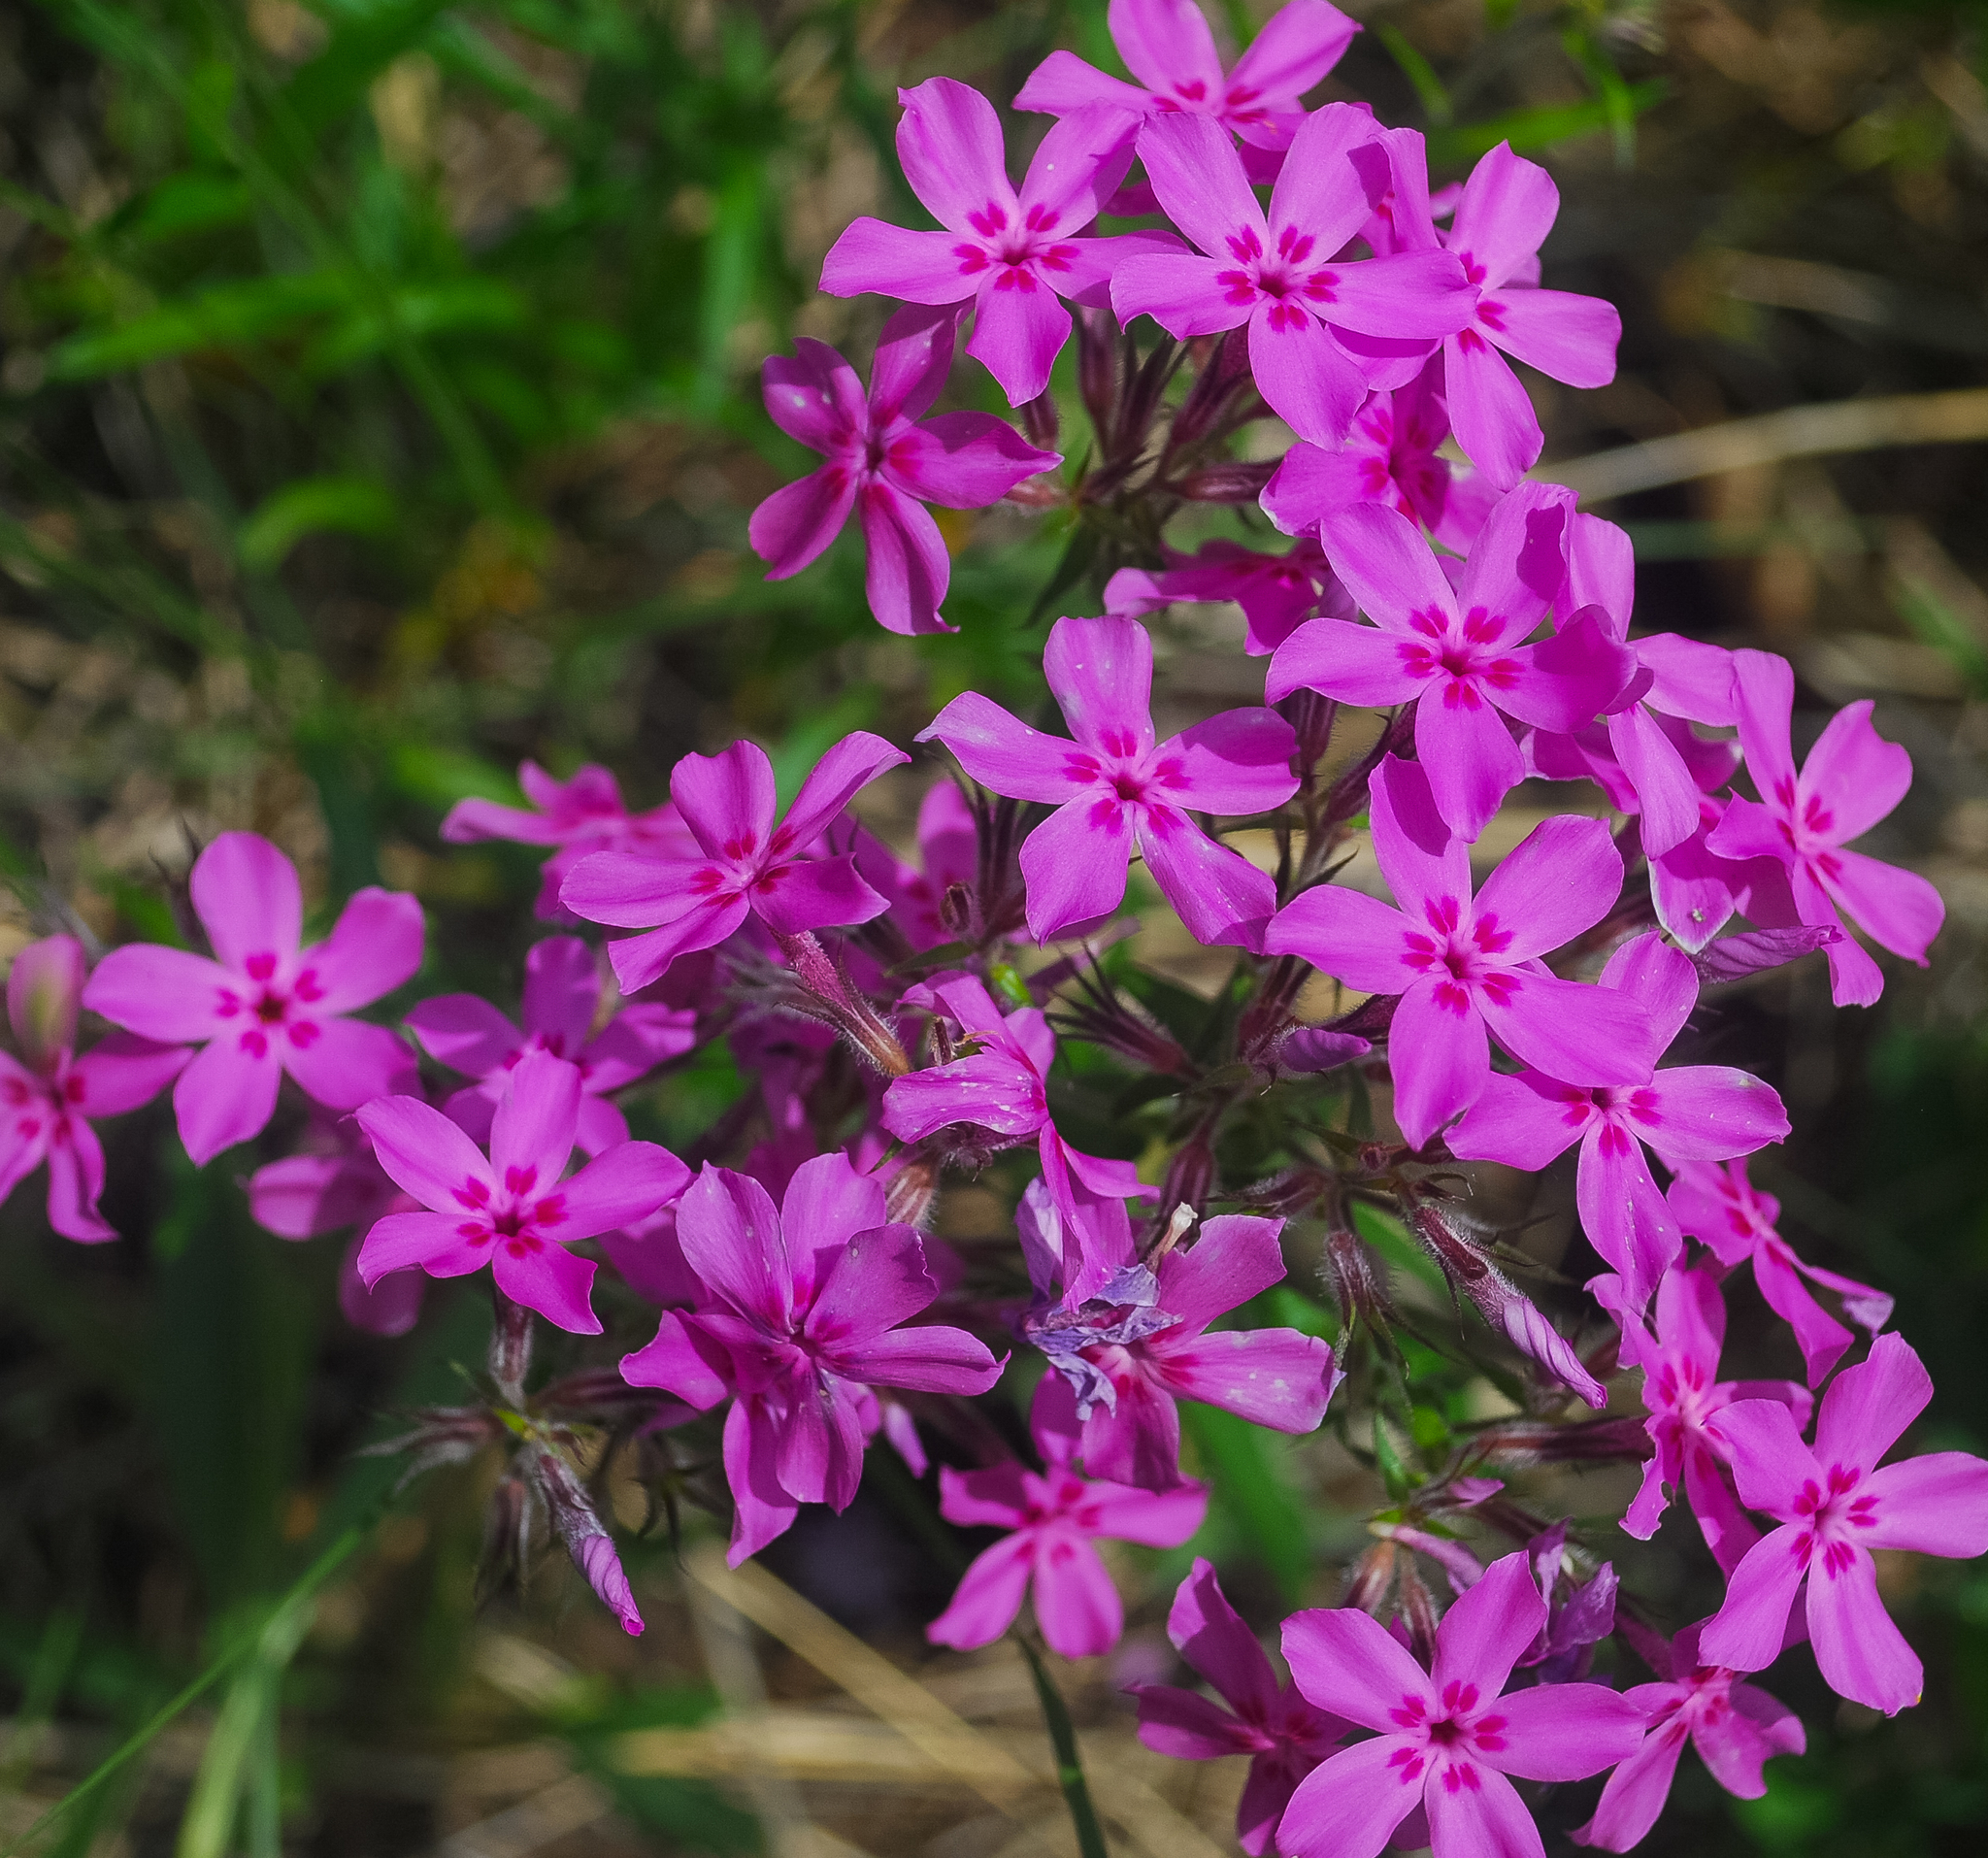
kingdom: Plantae
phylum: Tracheophyta
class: Magnoliopsida
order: Ericales
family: Polemoniaceae
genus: Phlox
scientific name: Phlox pilosa
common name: Prairie phlox
